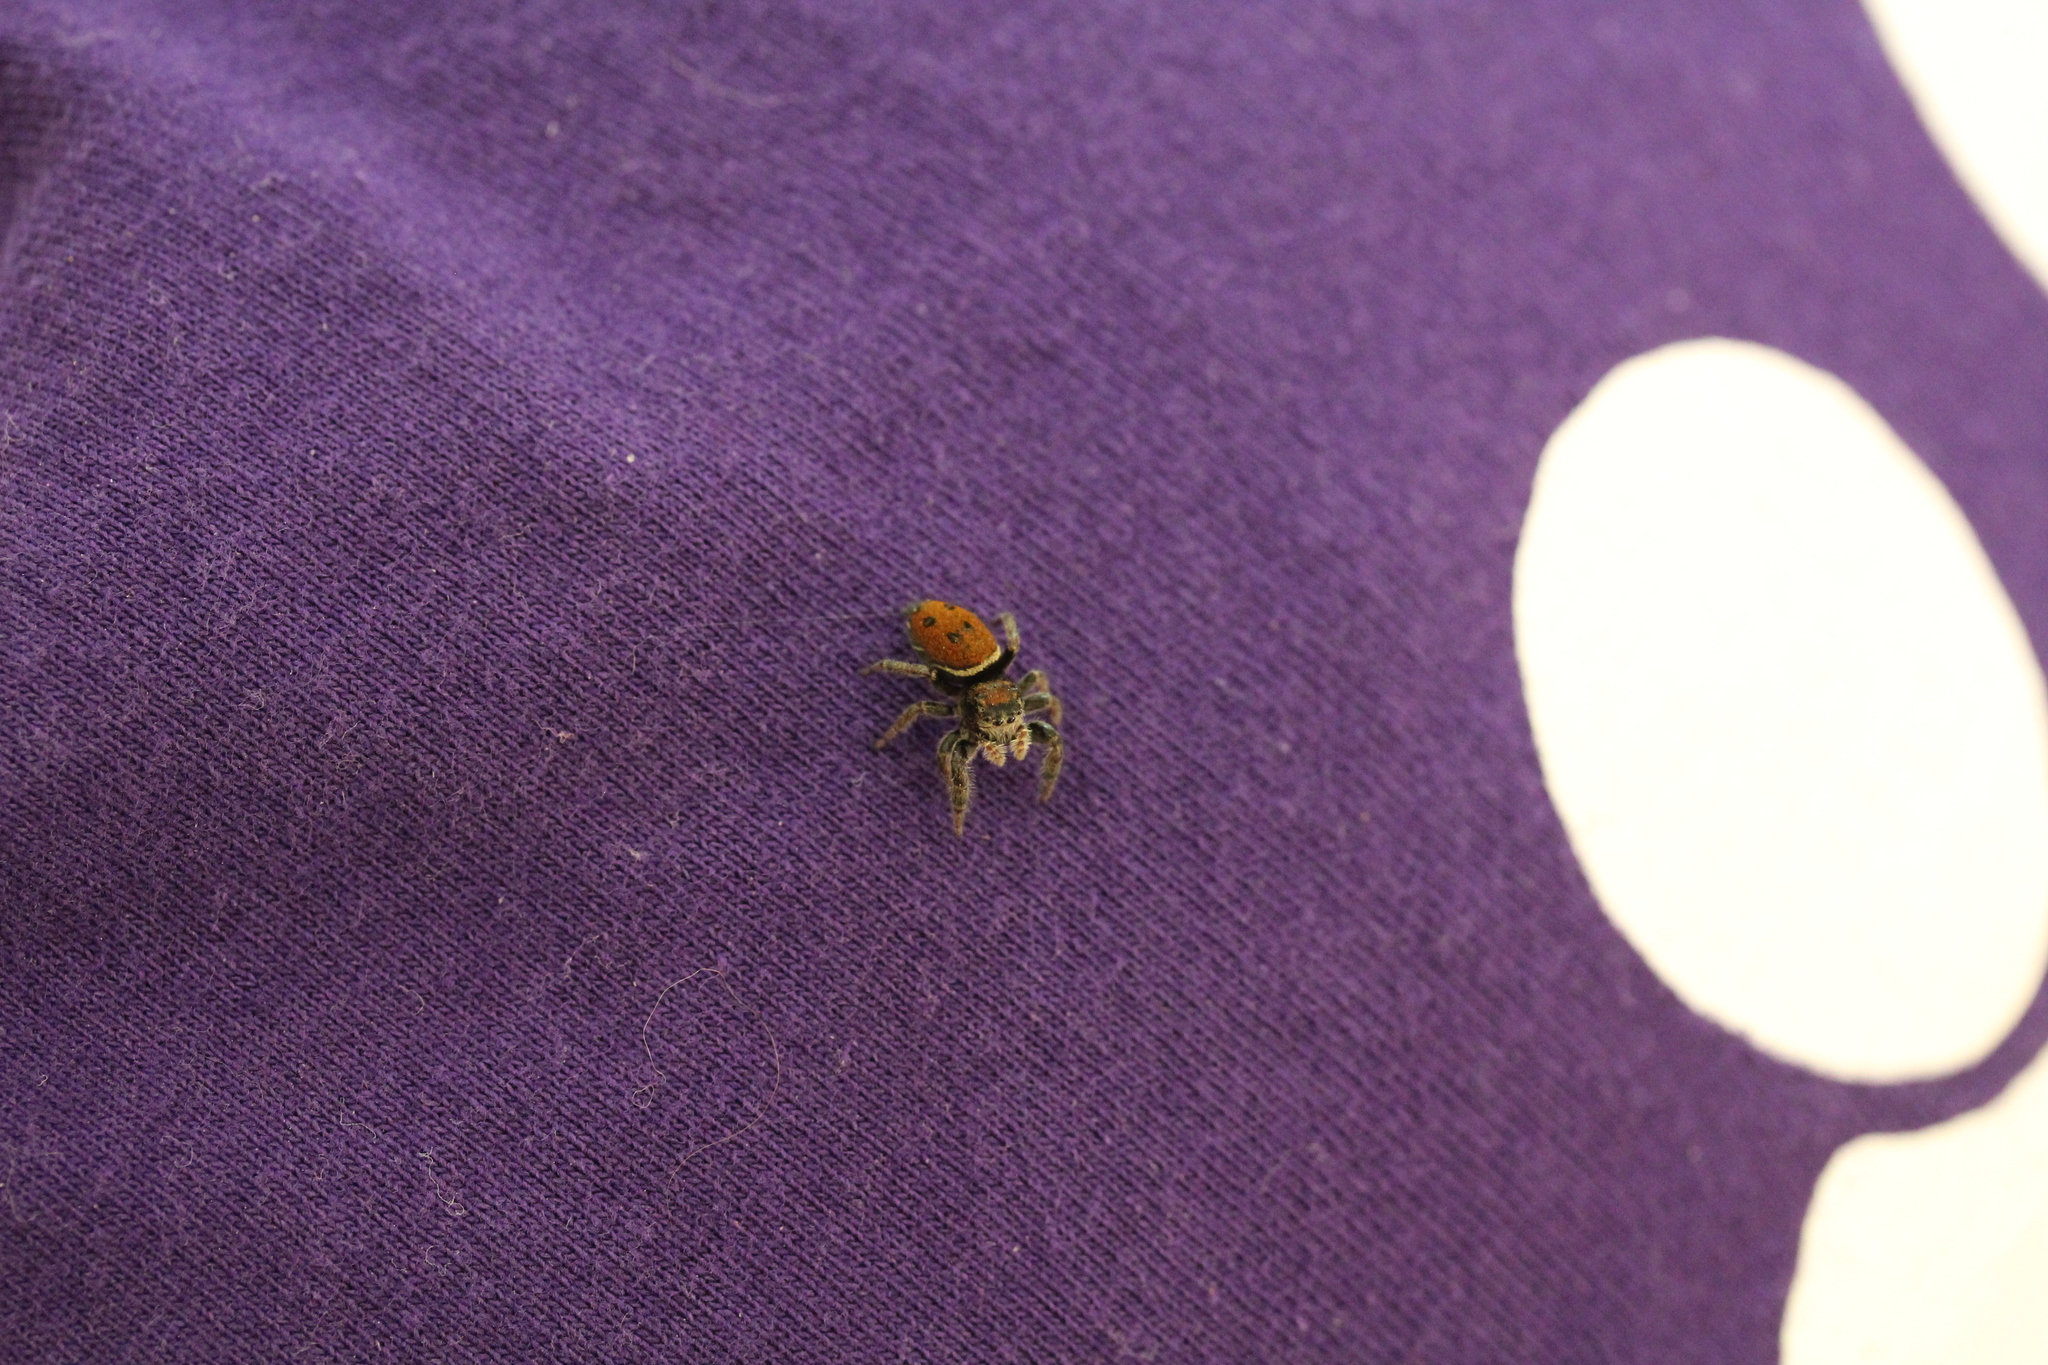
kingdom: Animalia
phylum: Arthropoda
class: Arachnida
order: Araneae
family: Salticidae
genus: Phidippus
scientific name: Phidippus whitmani
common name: Whitman's jumping spider
